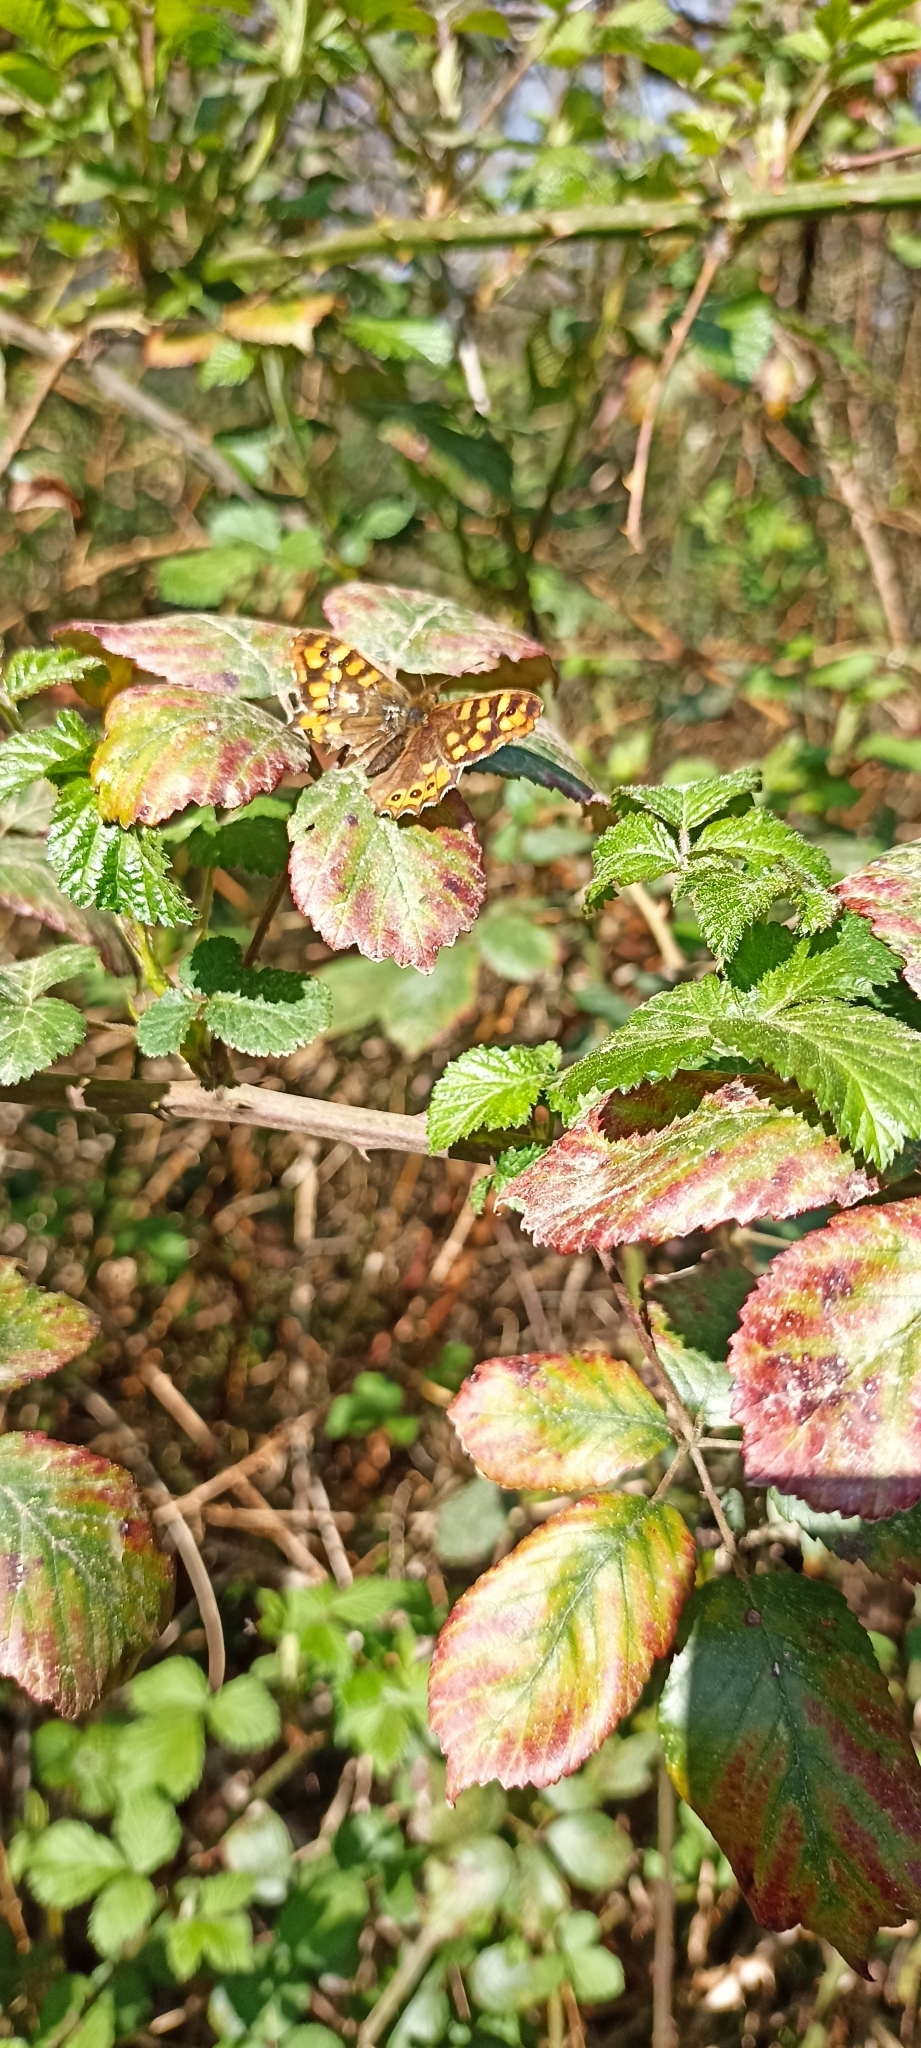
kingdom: Animalia
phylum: Arthropoda
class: Insecta
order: Lepidoptera
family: Nymphalidae
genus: Pararge
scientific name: Pararge aegeria
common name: Speckled wood
